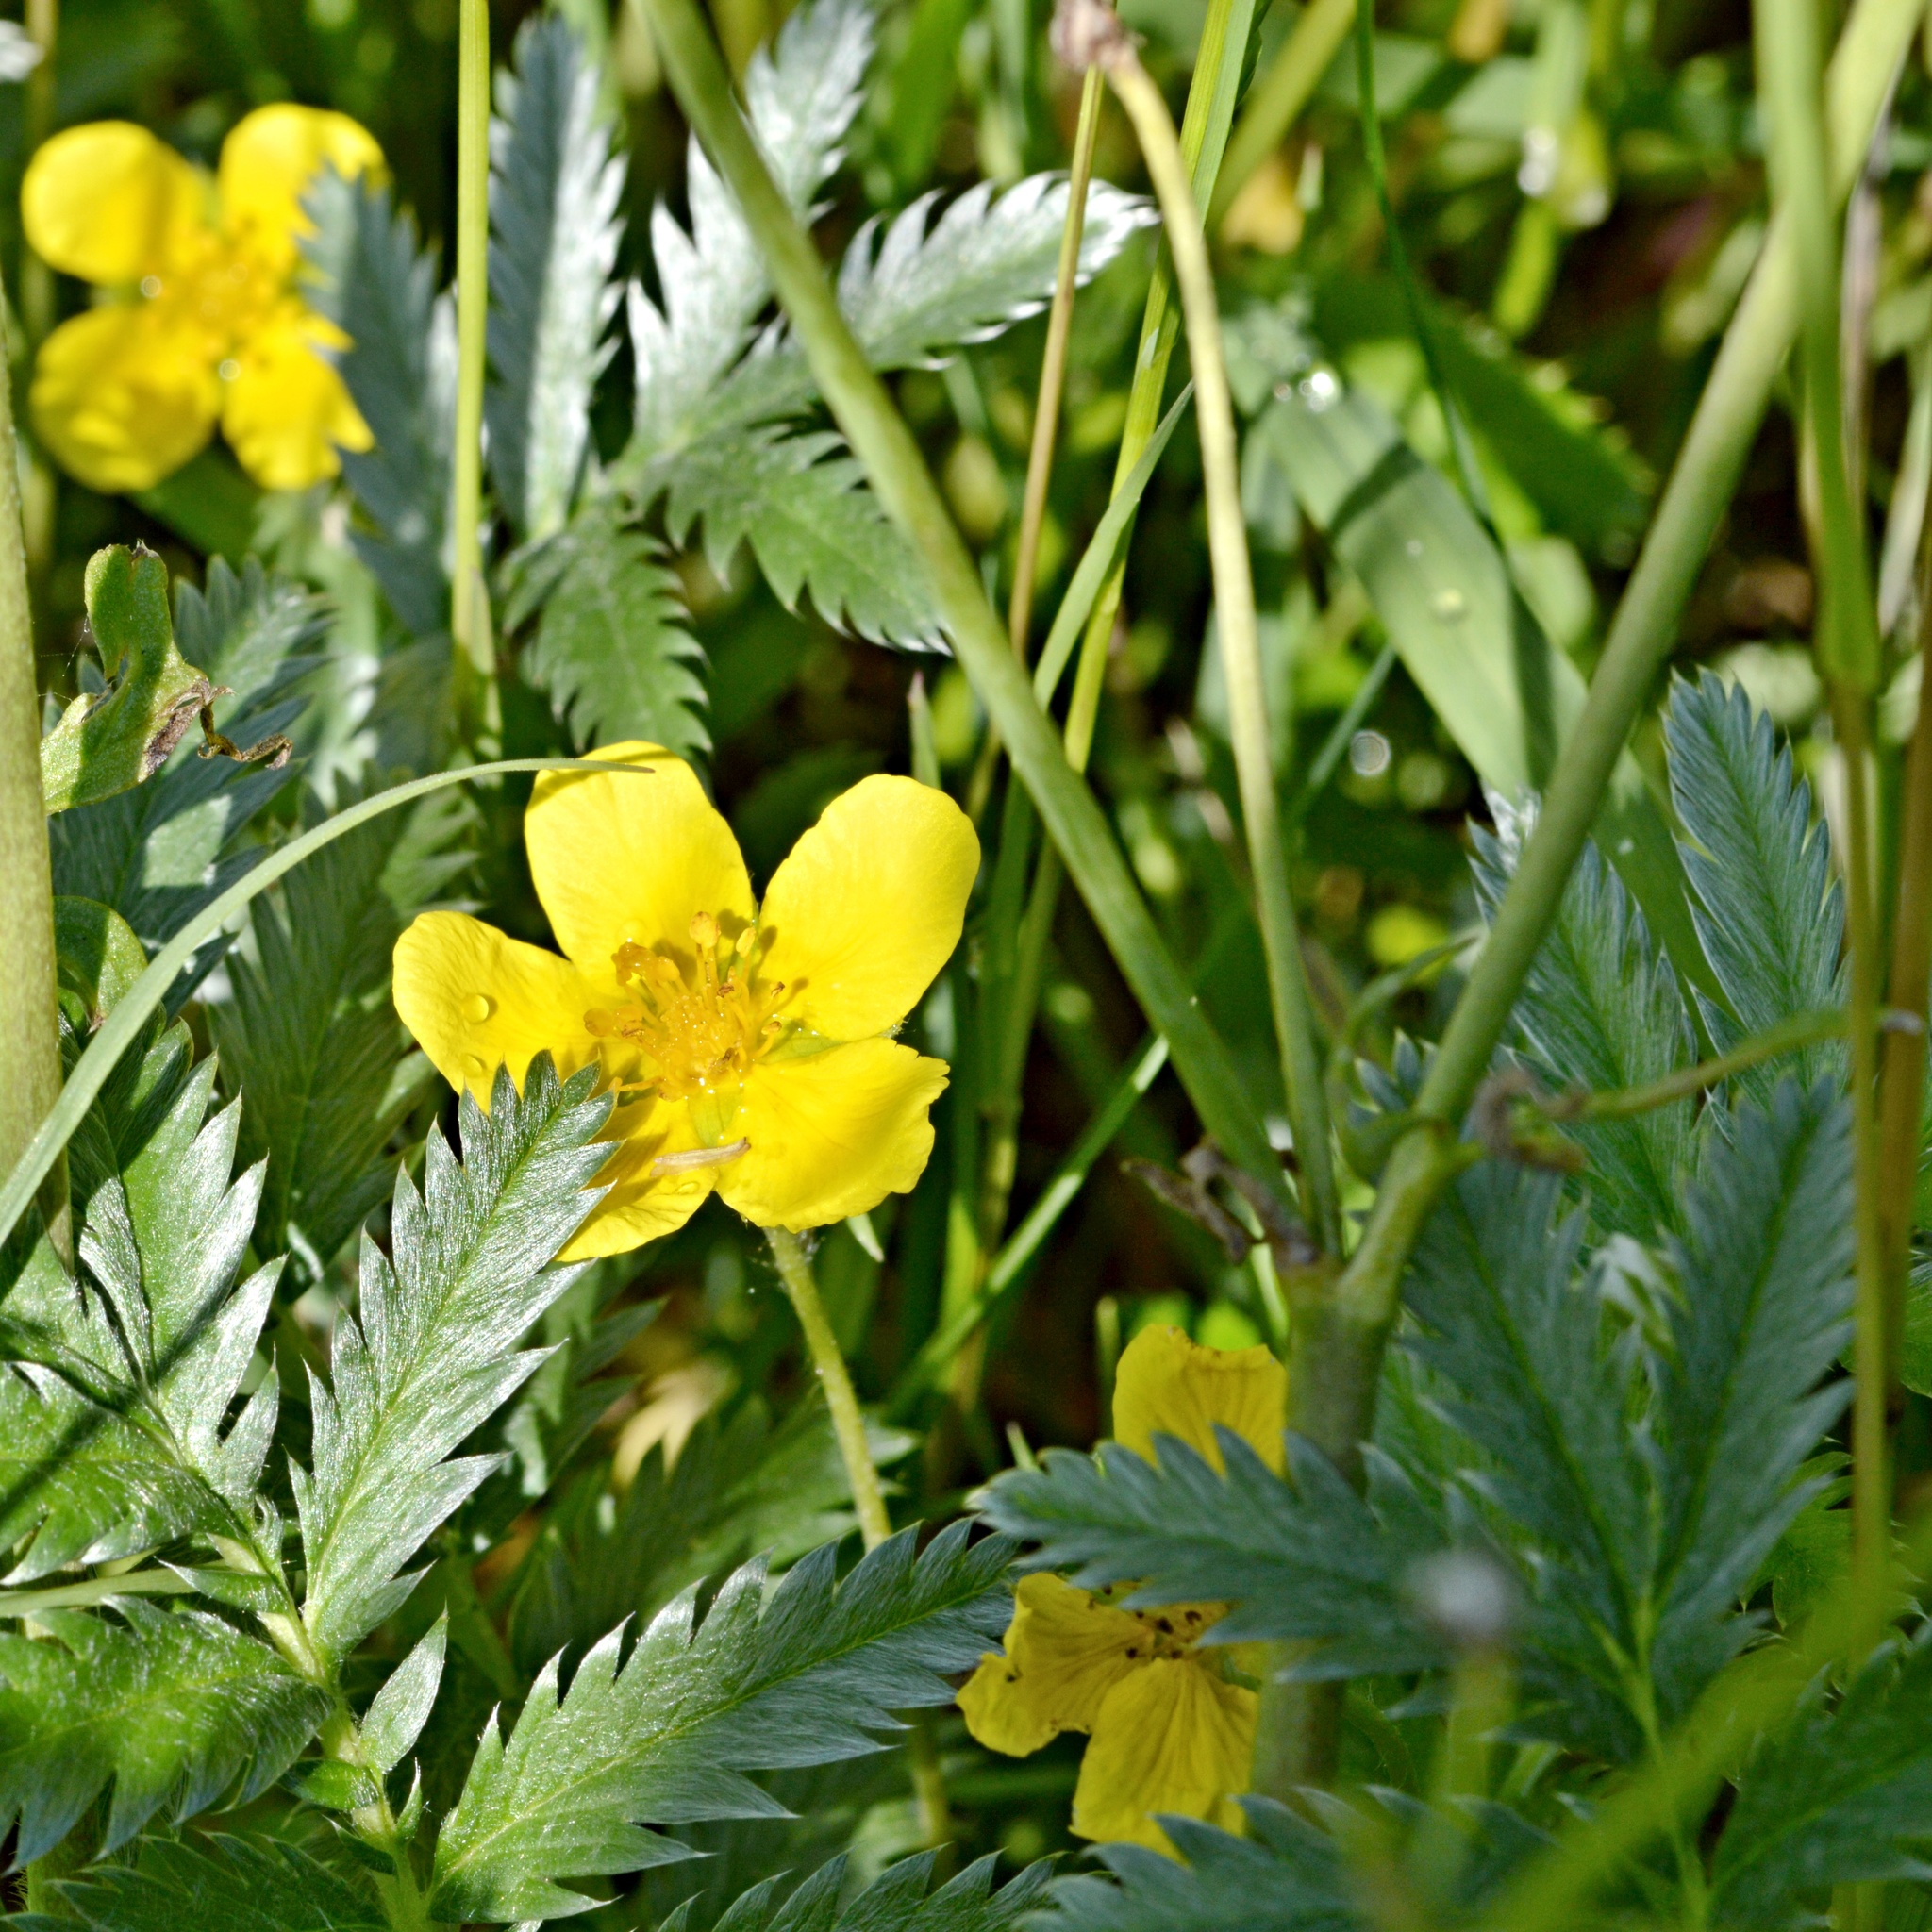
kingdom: Plantae
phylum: Tracheophyta
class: Magnoliopsida
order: Rosales
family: Rosaceae
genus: Argentina
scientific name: Argentina anserina
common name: Common silverweed
